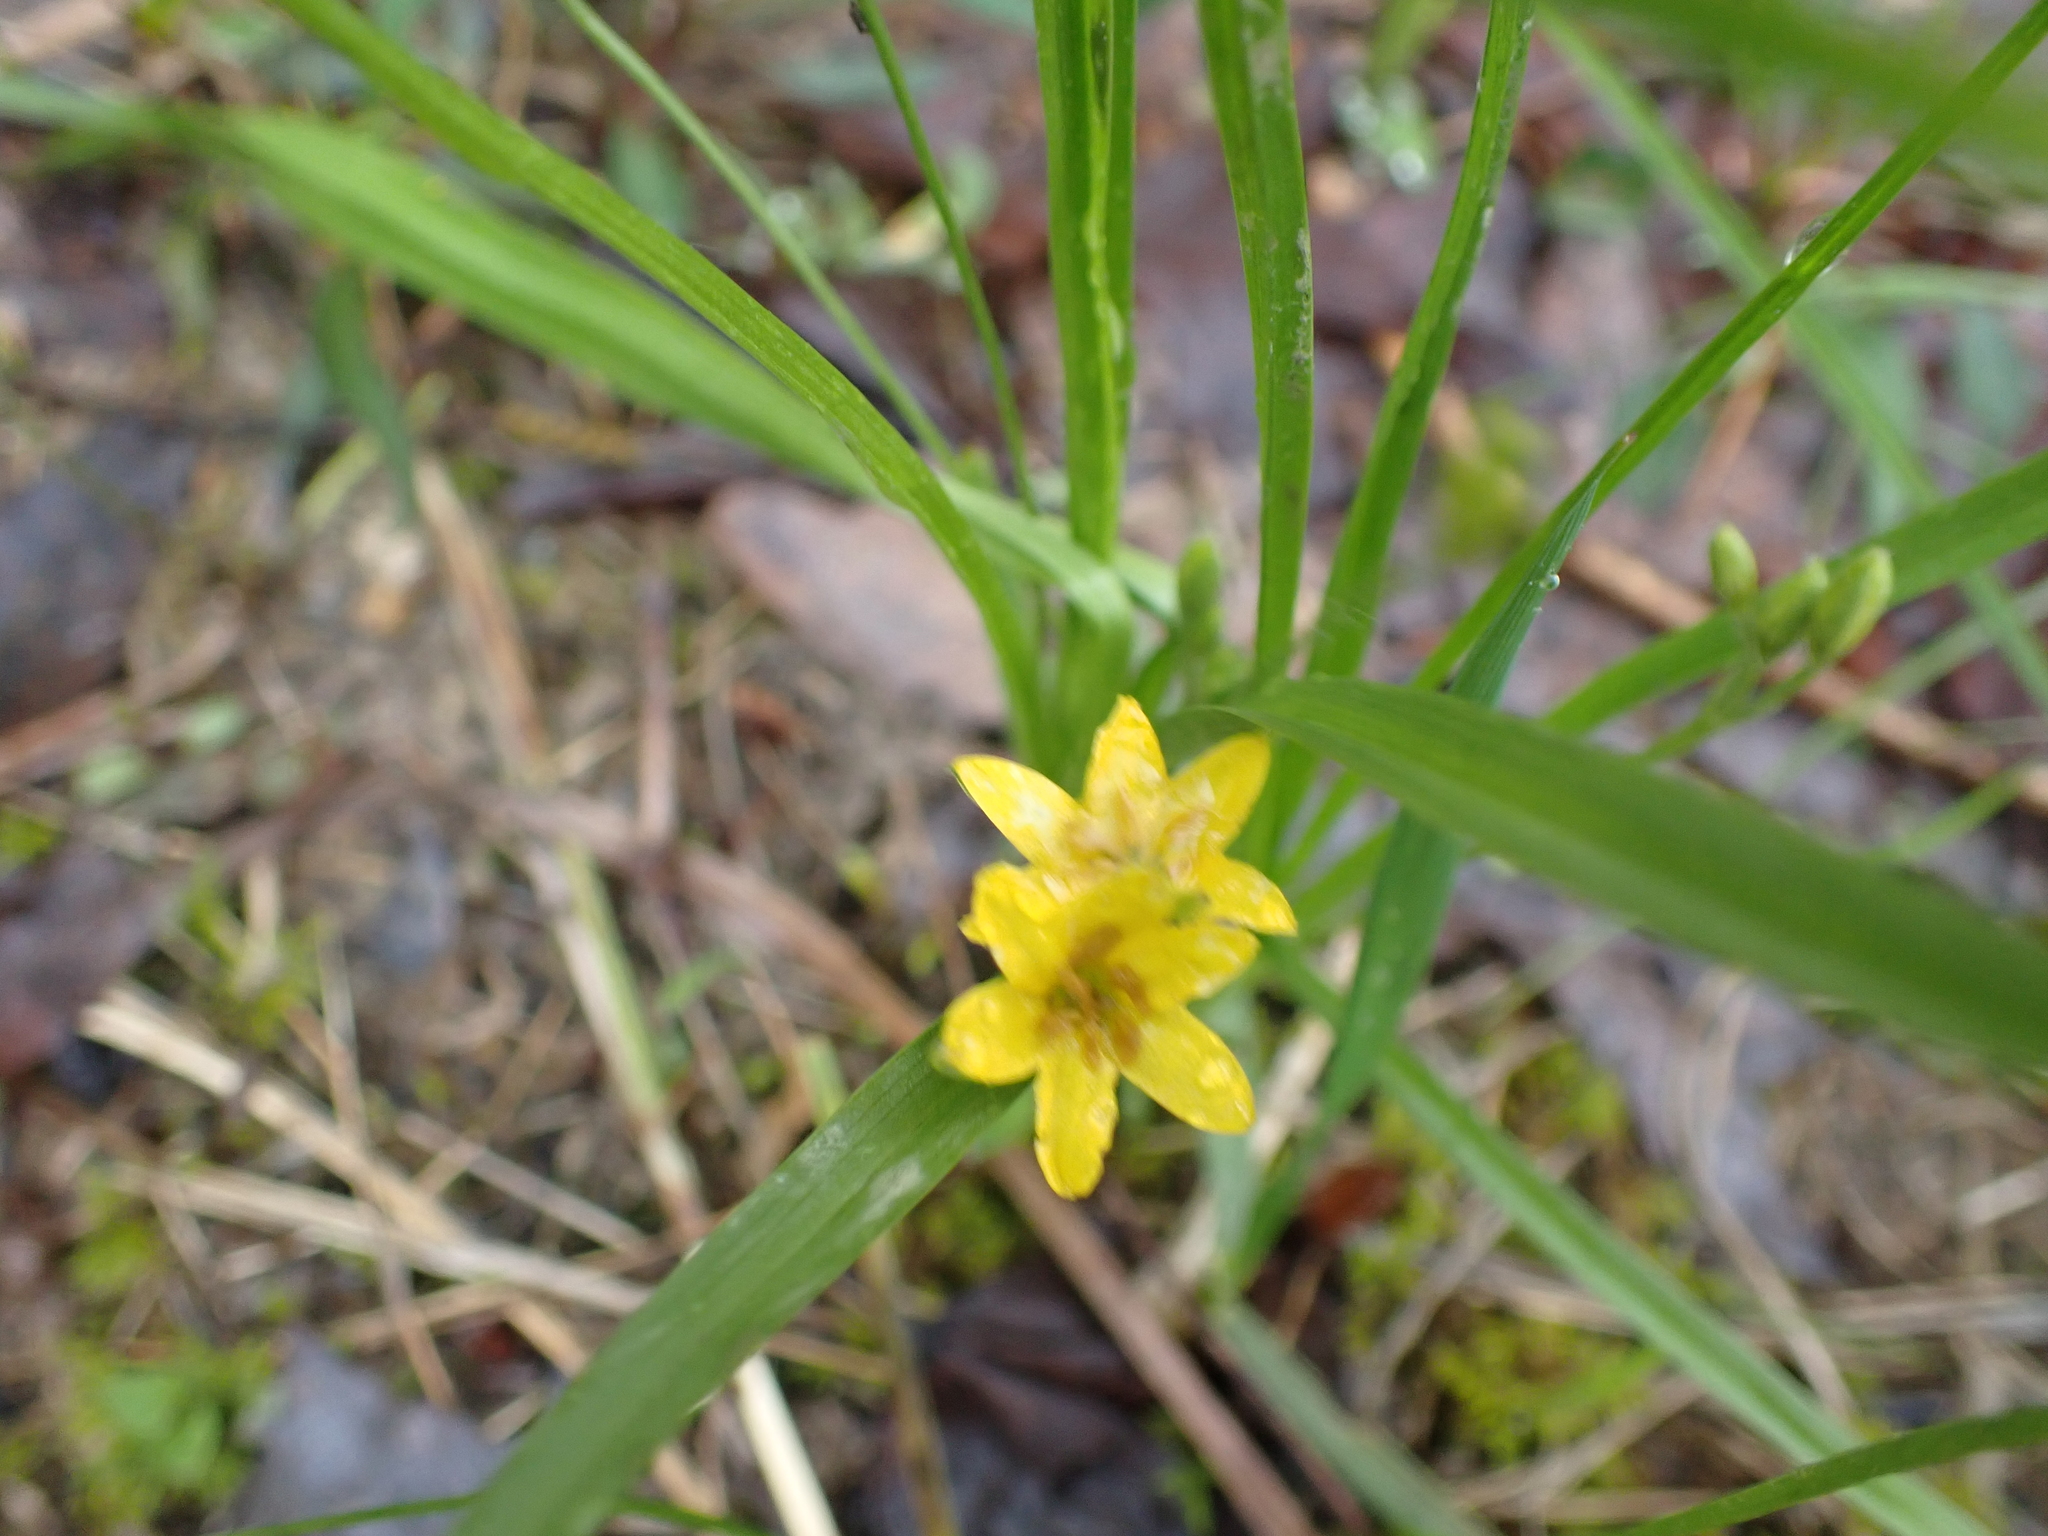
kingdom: Plantae
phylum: Tracheophyta
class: Liliopsida
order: Asparagales
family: Hypoxidaceae
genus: Hypoxis
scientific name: Hypoxis hirsuta
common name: Common goldstar
